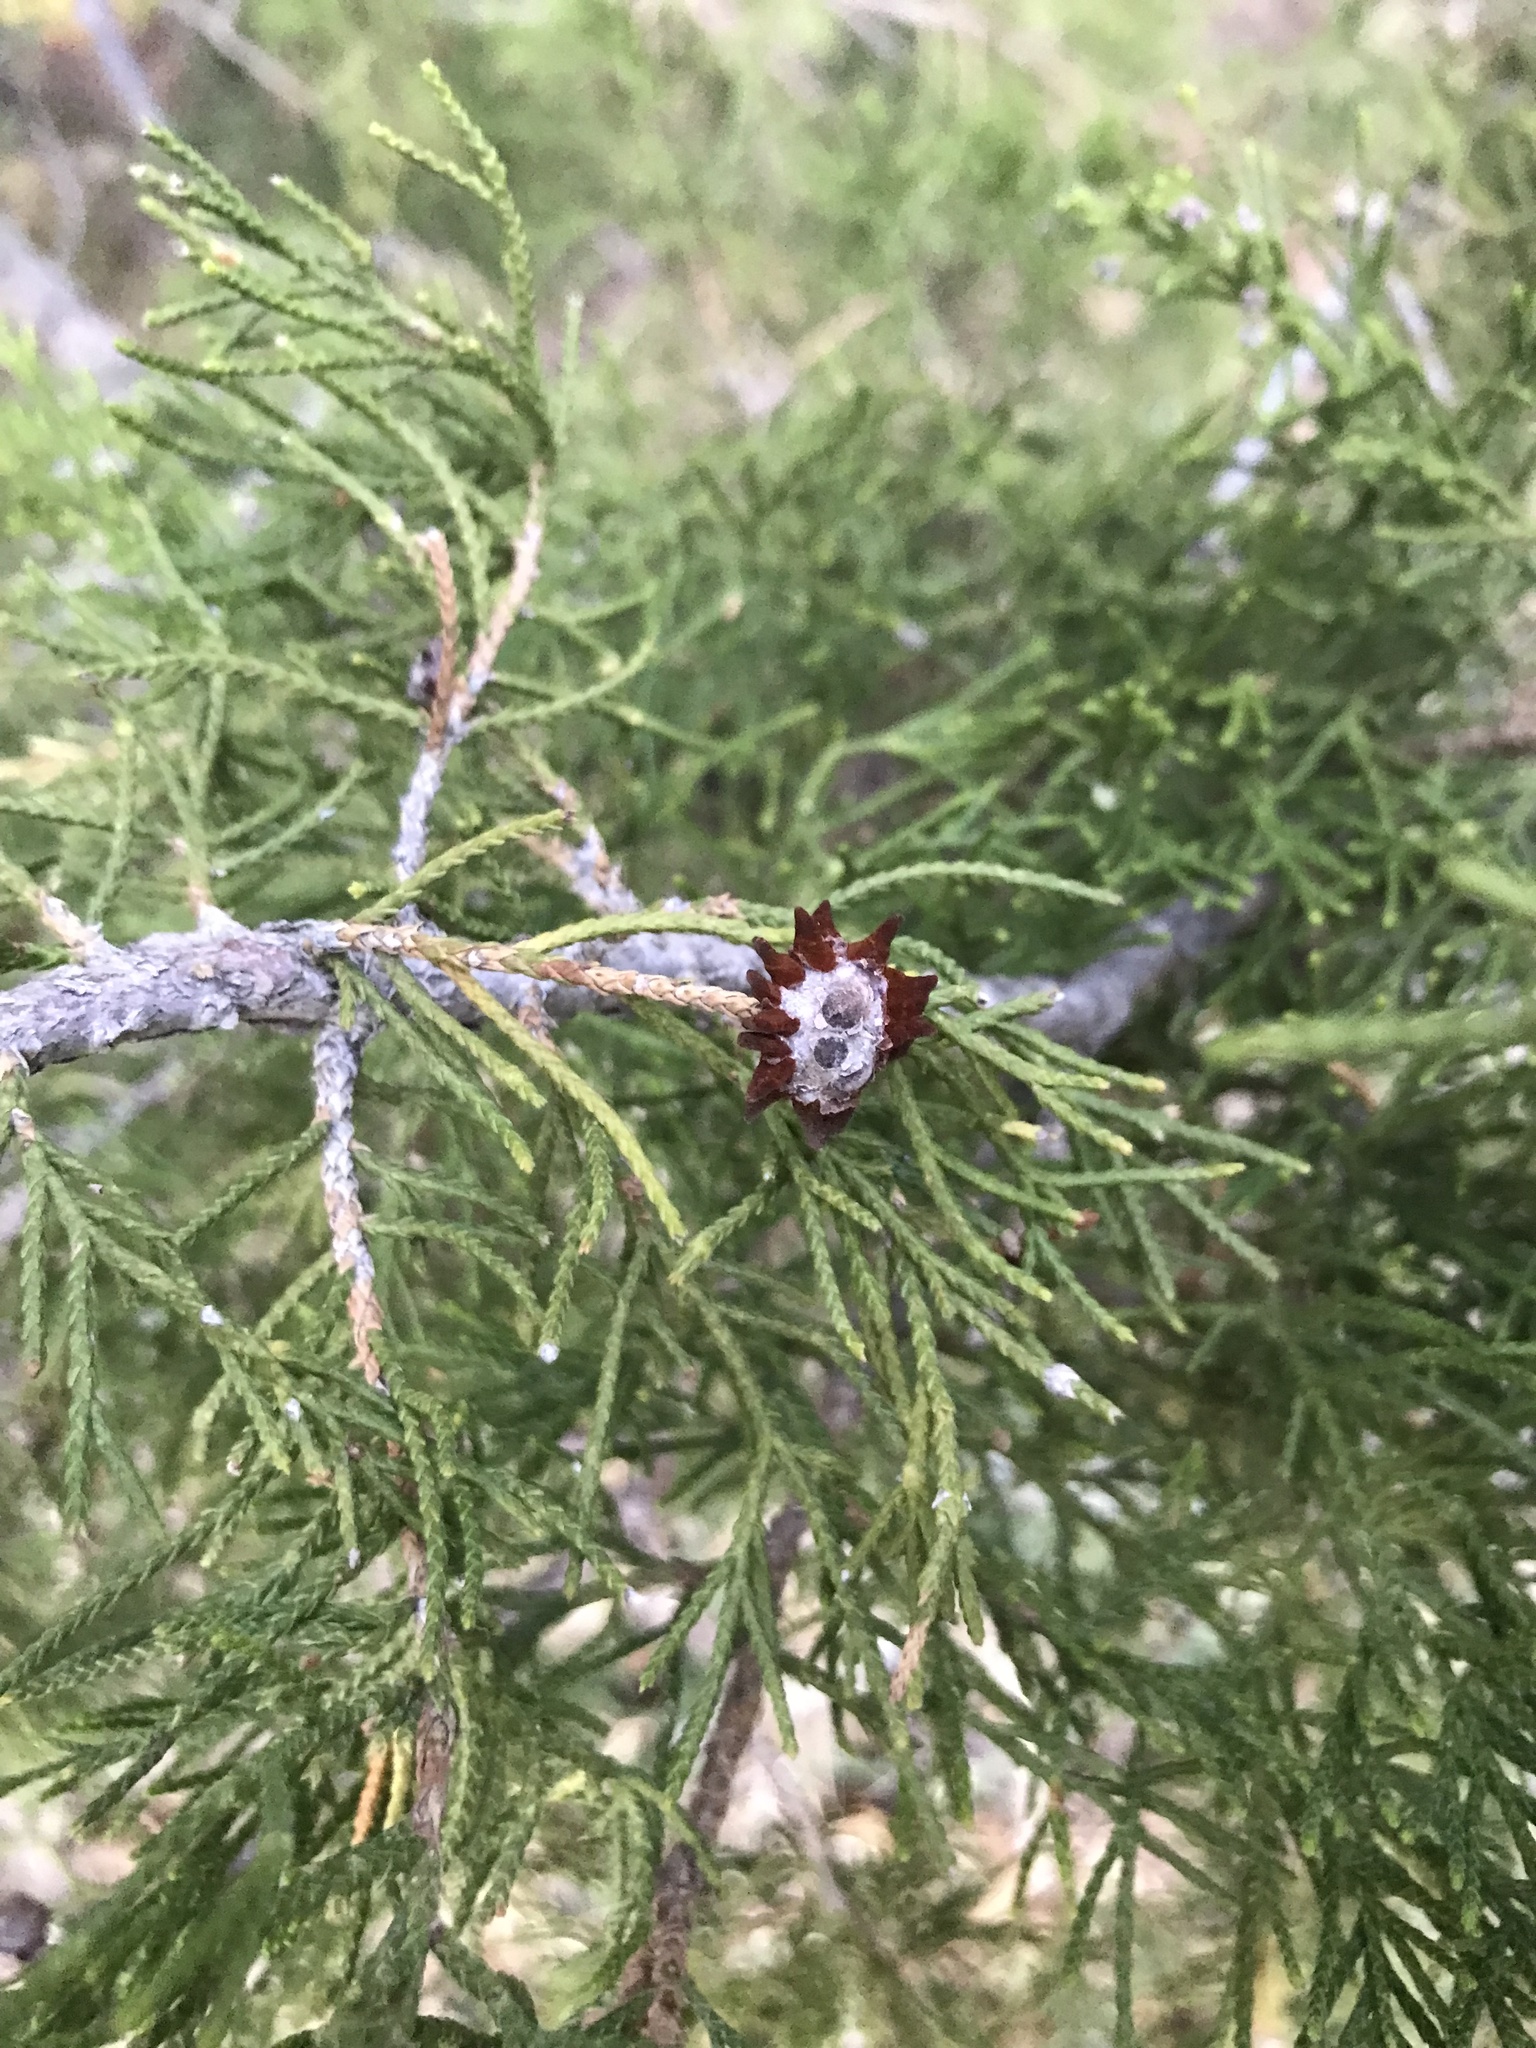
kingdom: Fungi
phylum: Basidiomycota
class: Pucciniomycetes
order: Pucciniales
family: Gymnosporangiaceae
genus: Gymnosporangium
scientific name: Gymnosporangium juniperi-virginianae
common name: Juniper-apple rust
